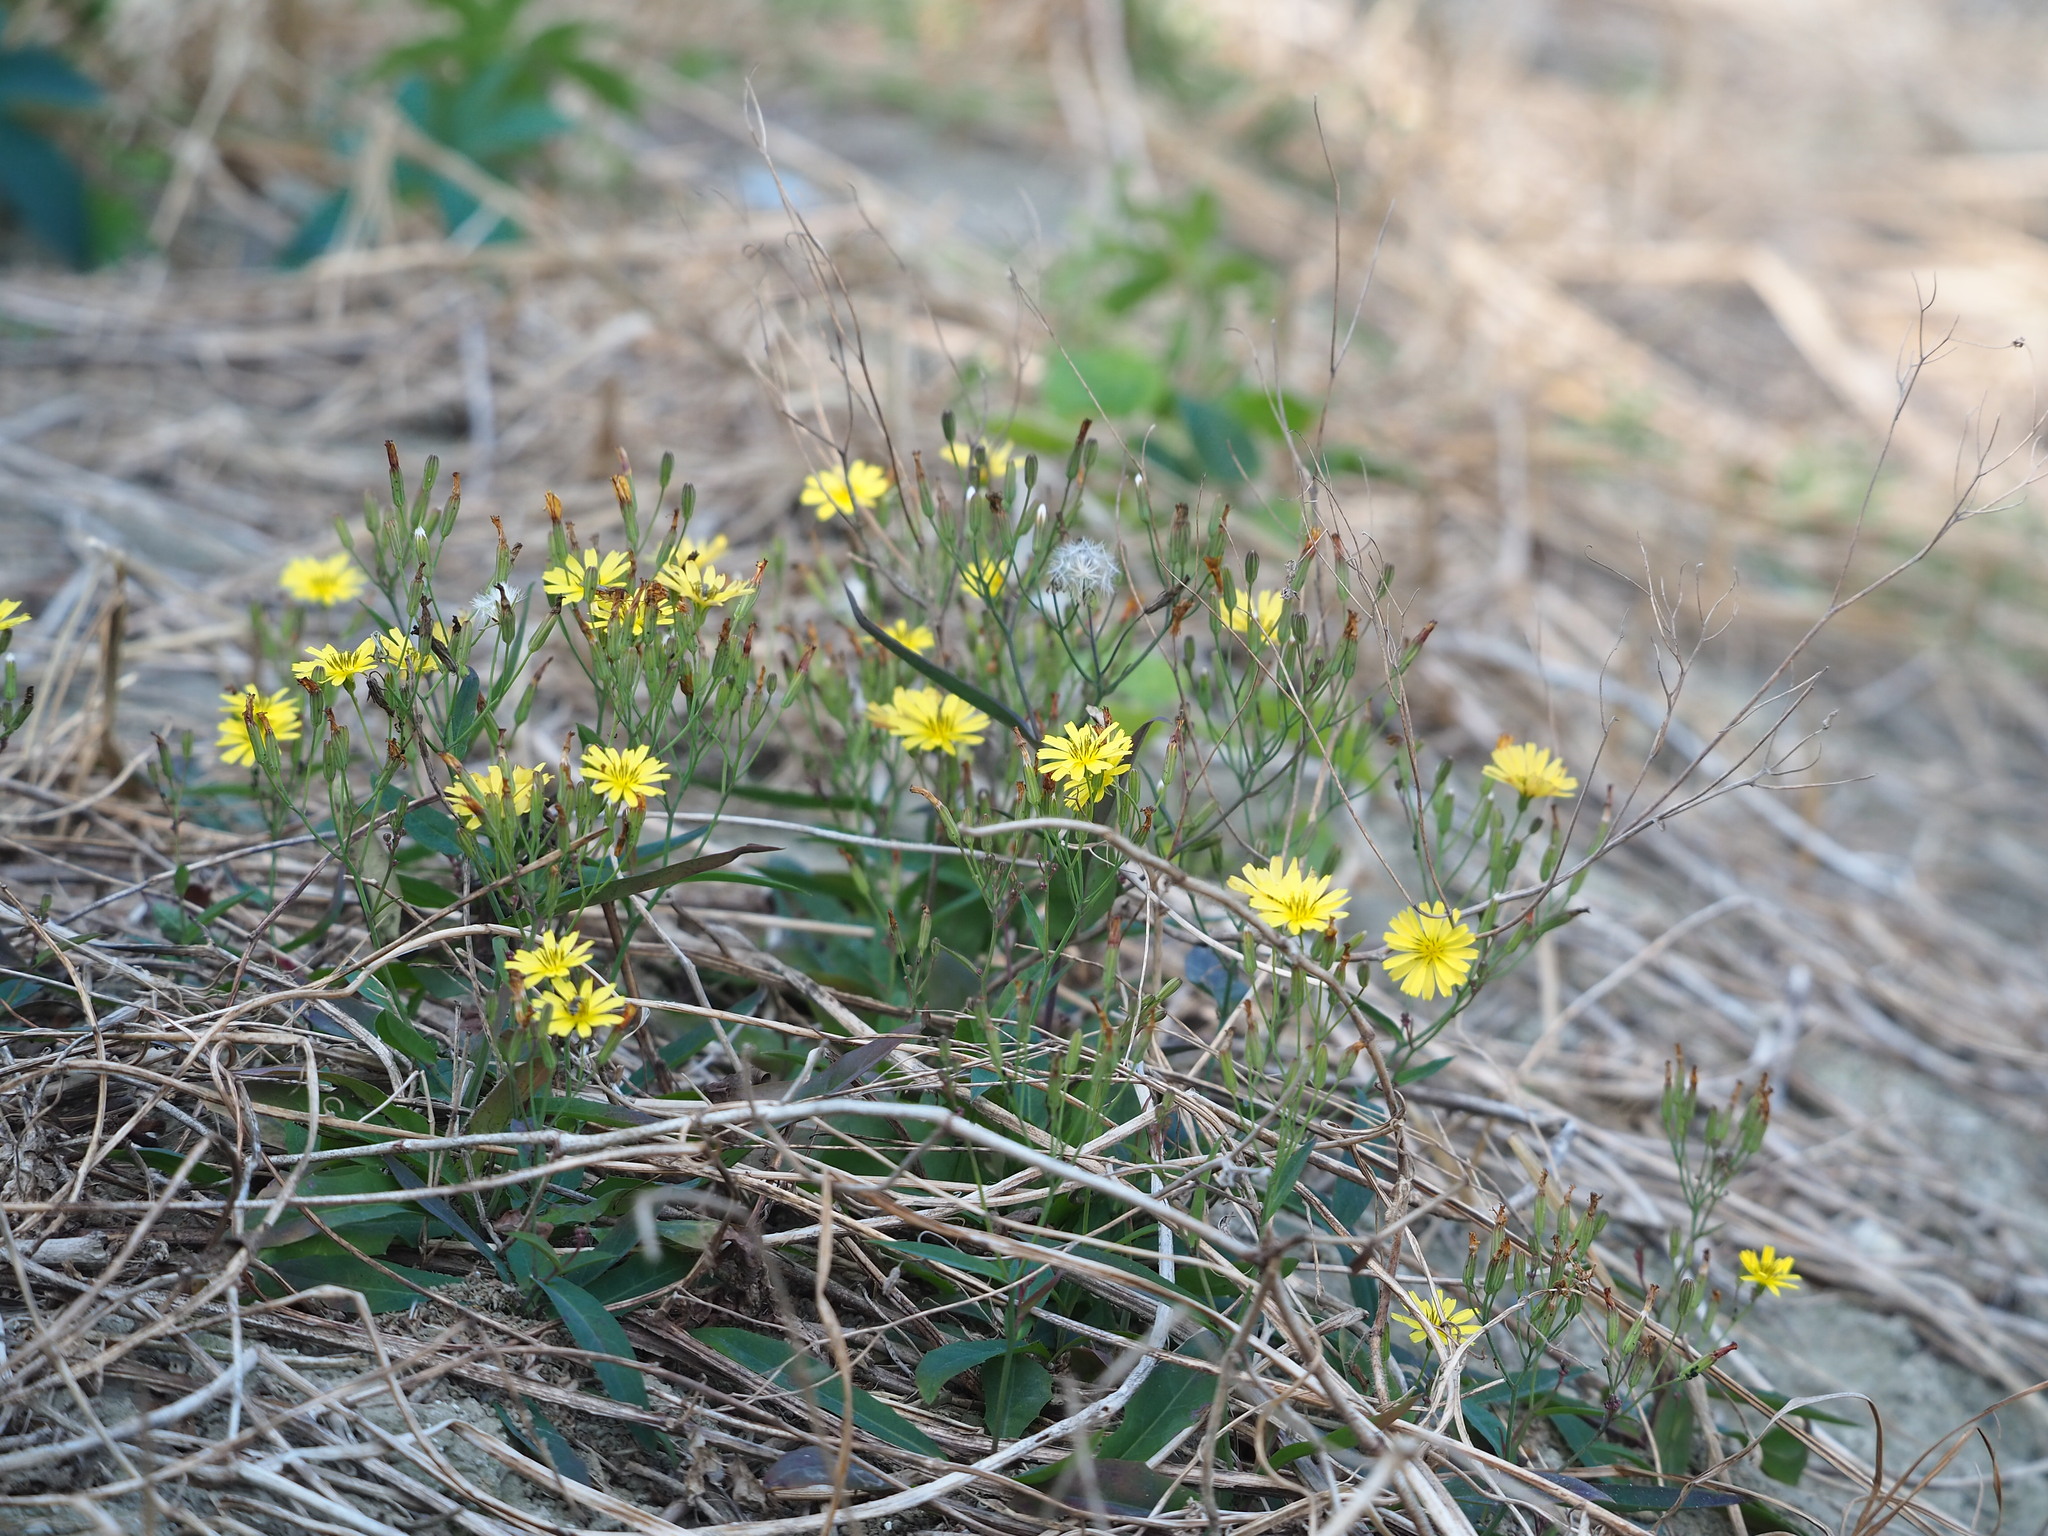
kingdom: Plantae
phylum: Tracheophyta
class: Magnoliopsida
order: Asterales
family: Asteraceae
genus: Ixeris
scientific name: Ixeris chinensis
